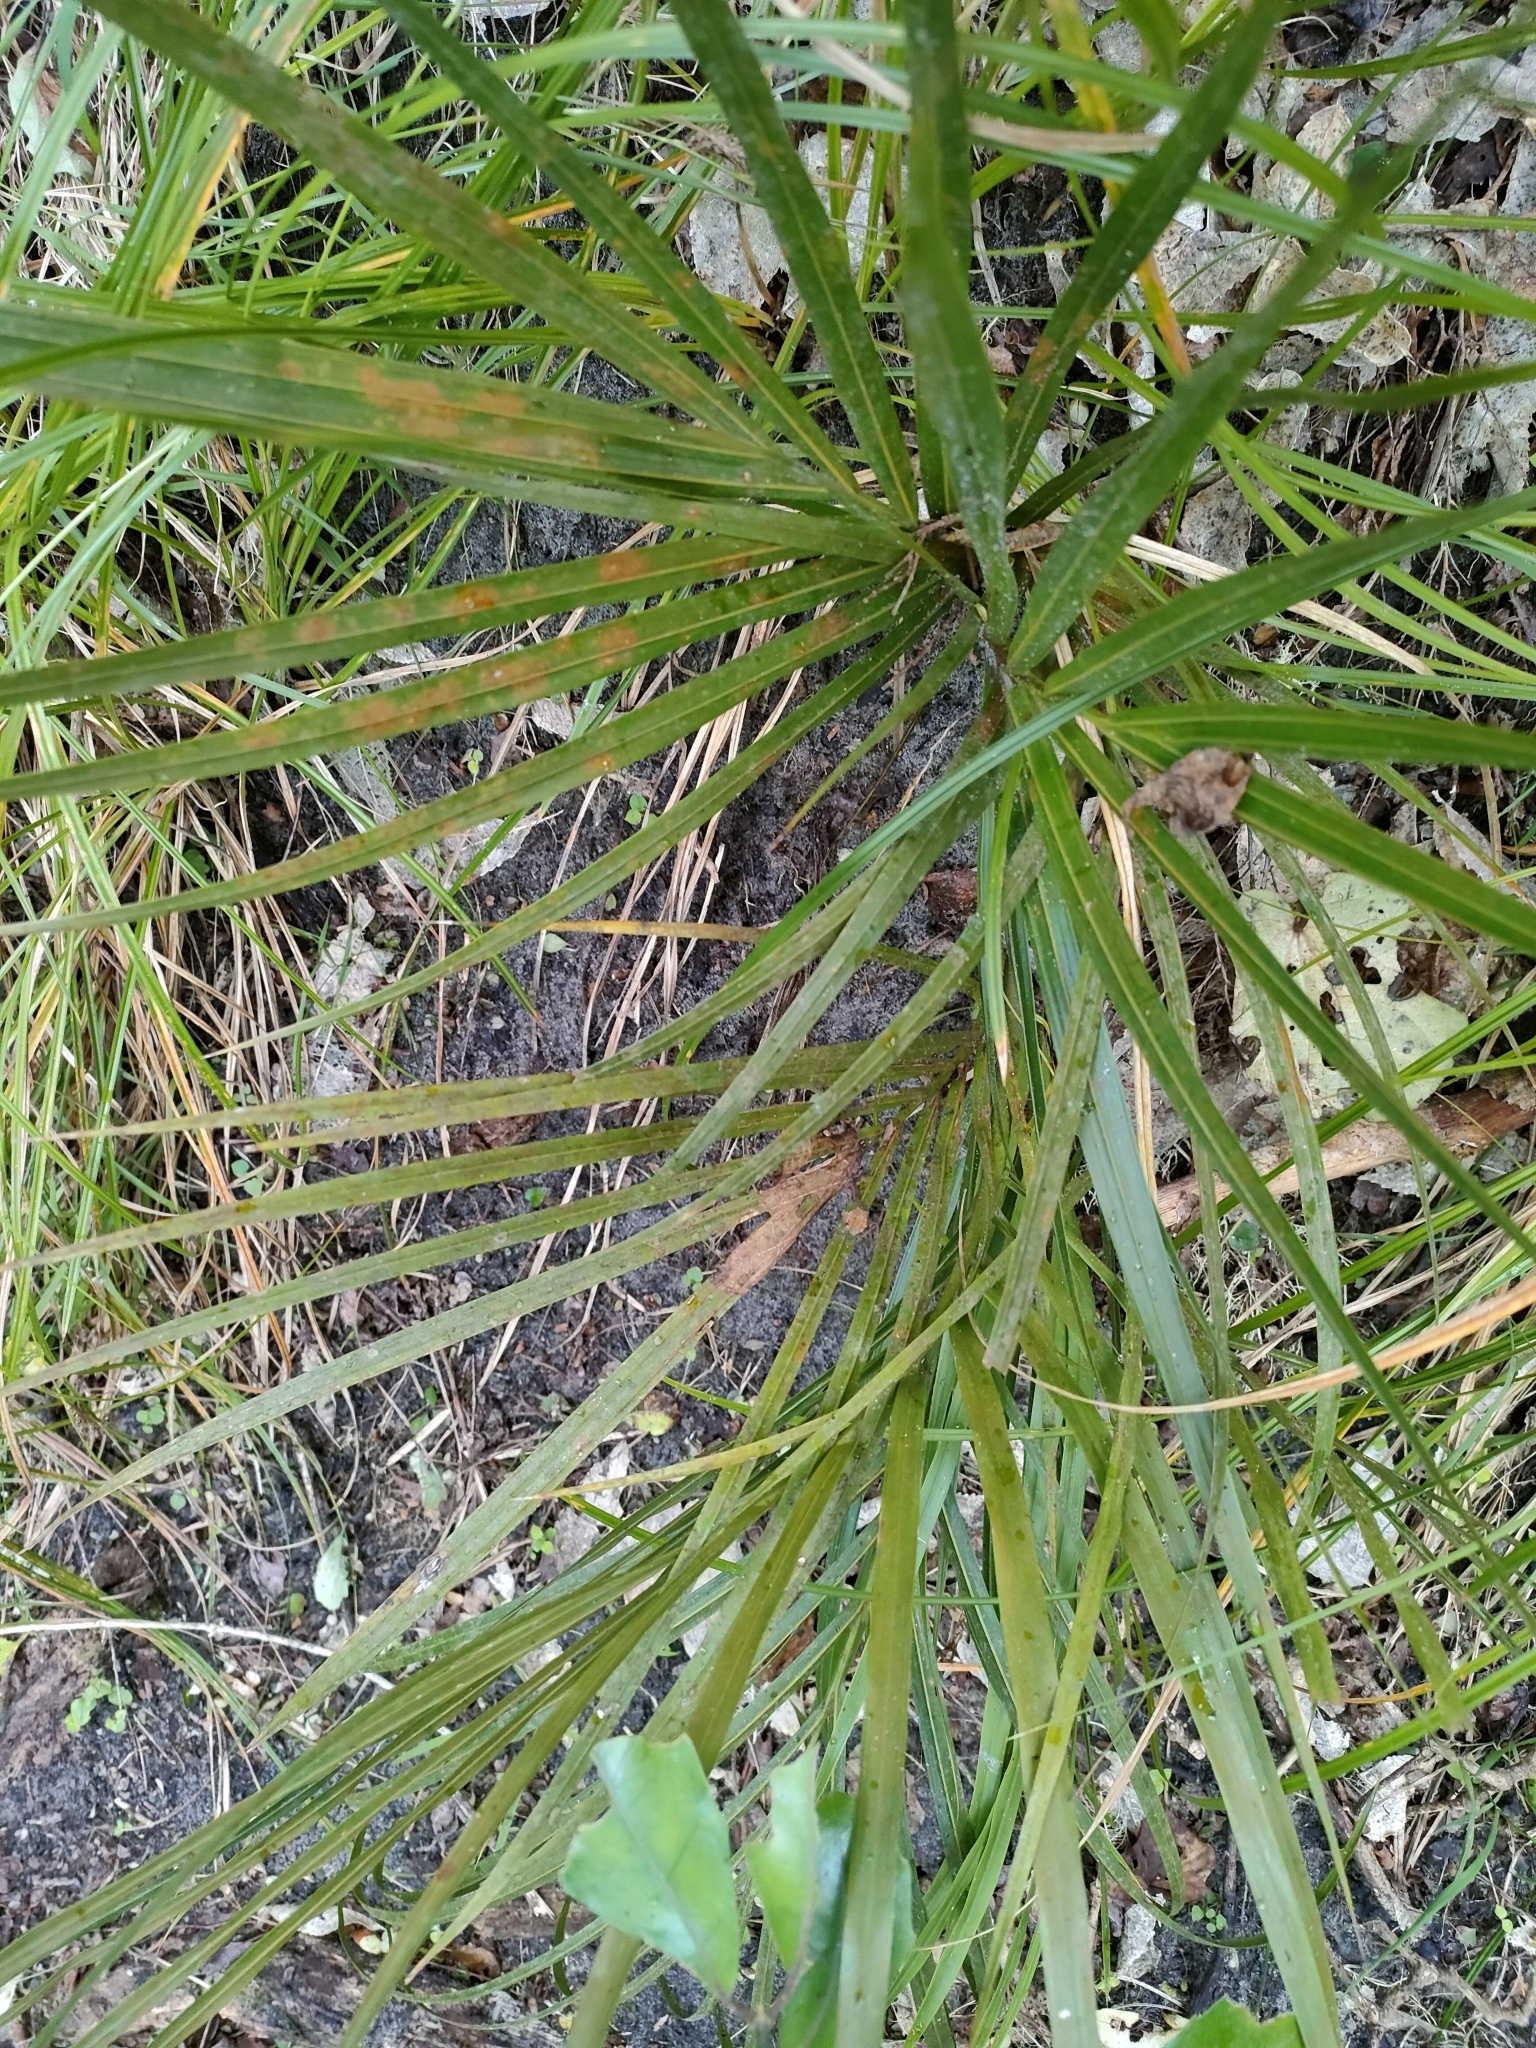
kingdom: Plantae
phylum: Tracheophyta
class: Liliopsida
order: Arecales
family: Arecaceae
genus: Rhopalostylis
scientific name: Rhopalostylis sapida
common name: Feather-duster palm
